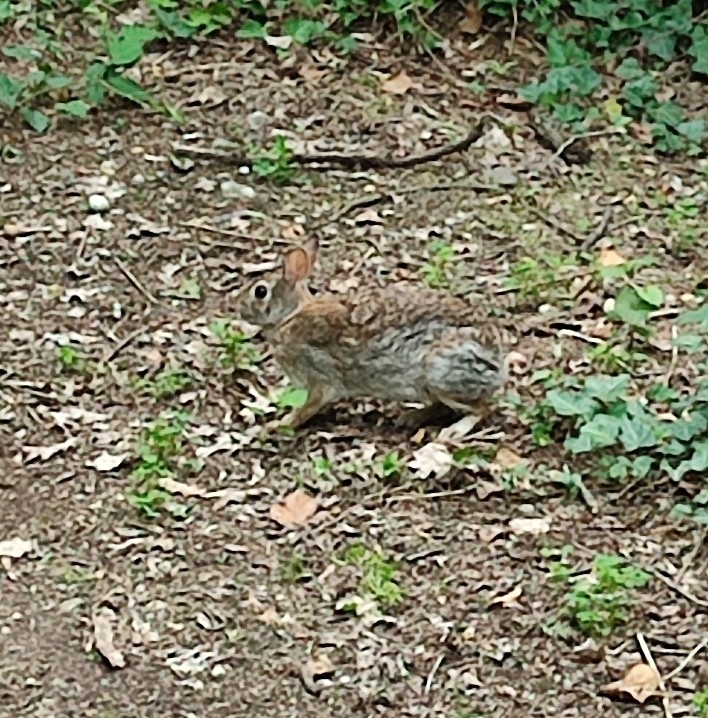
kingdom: Animalia
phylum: Chordata
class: Mammalia
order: Lagomorpha
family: Leporidae
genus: Sylvilagus
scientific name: Sylvilagus floridanus
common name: Eastern cottontail
